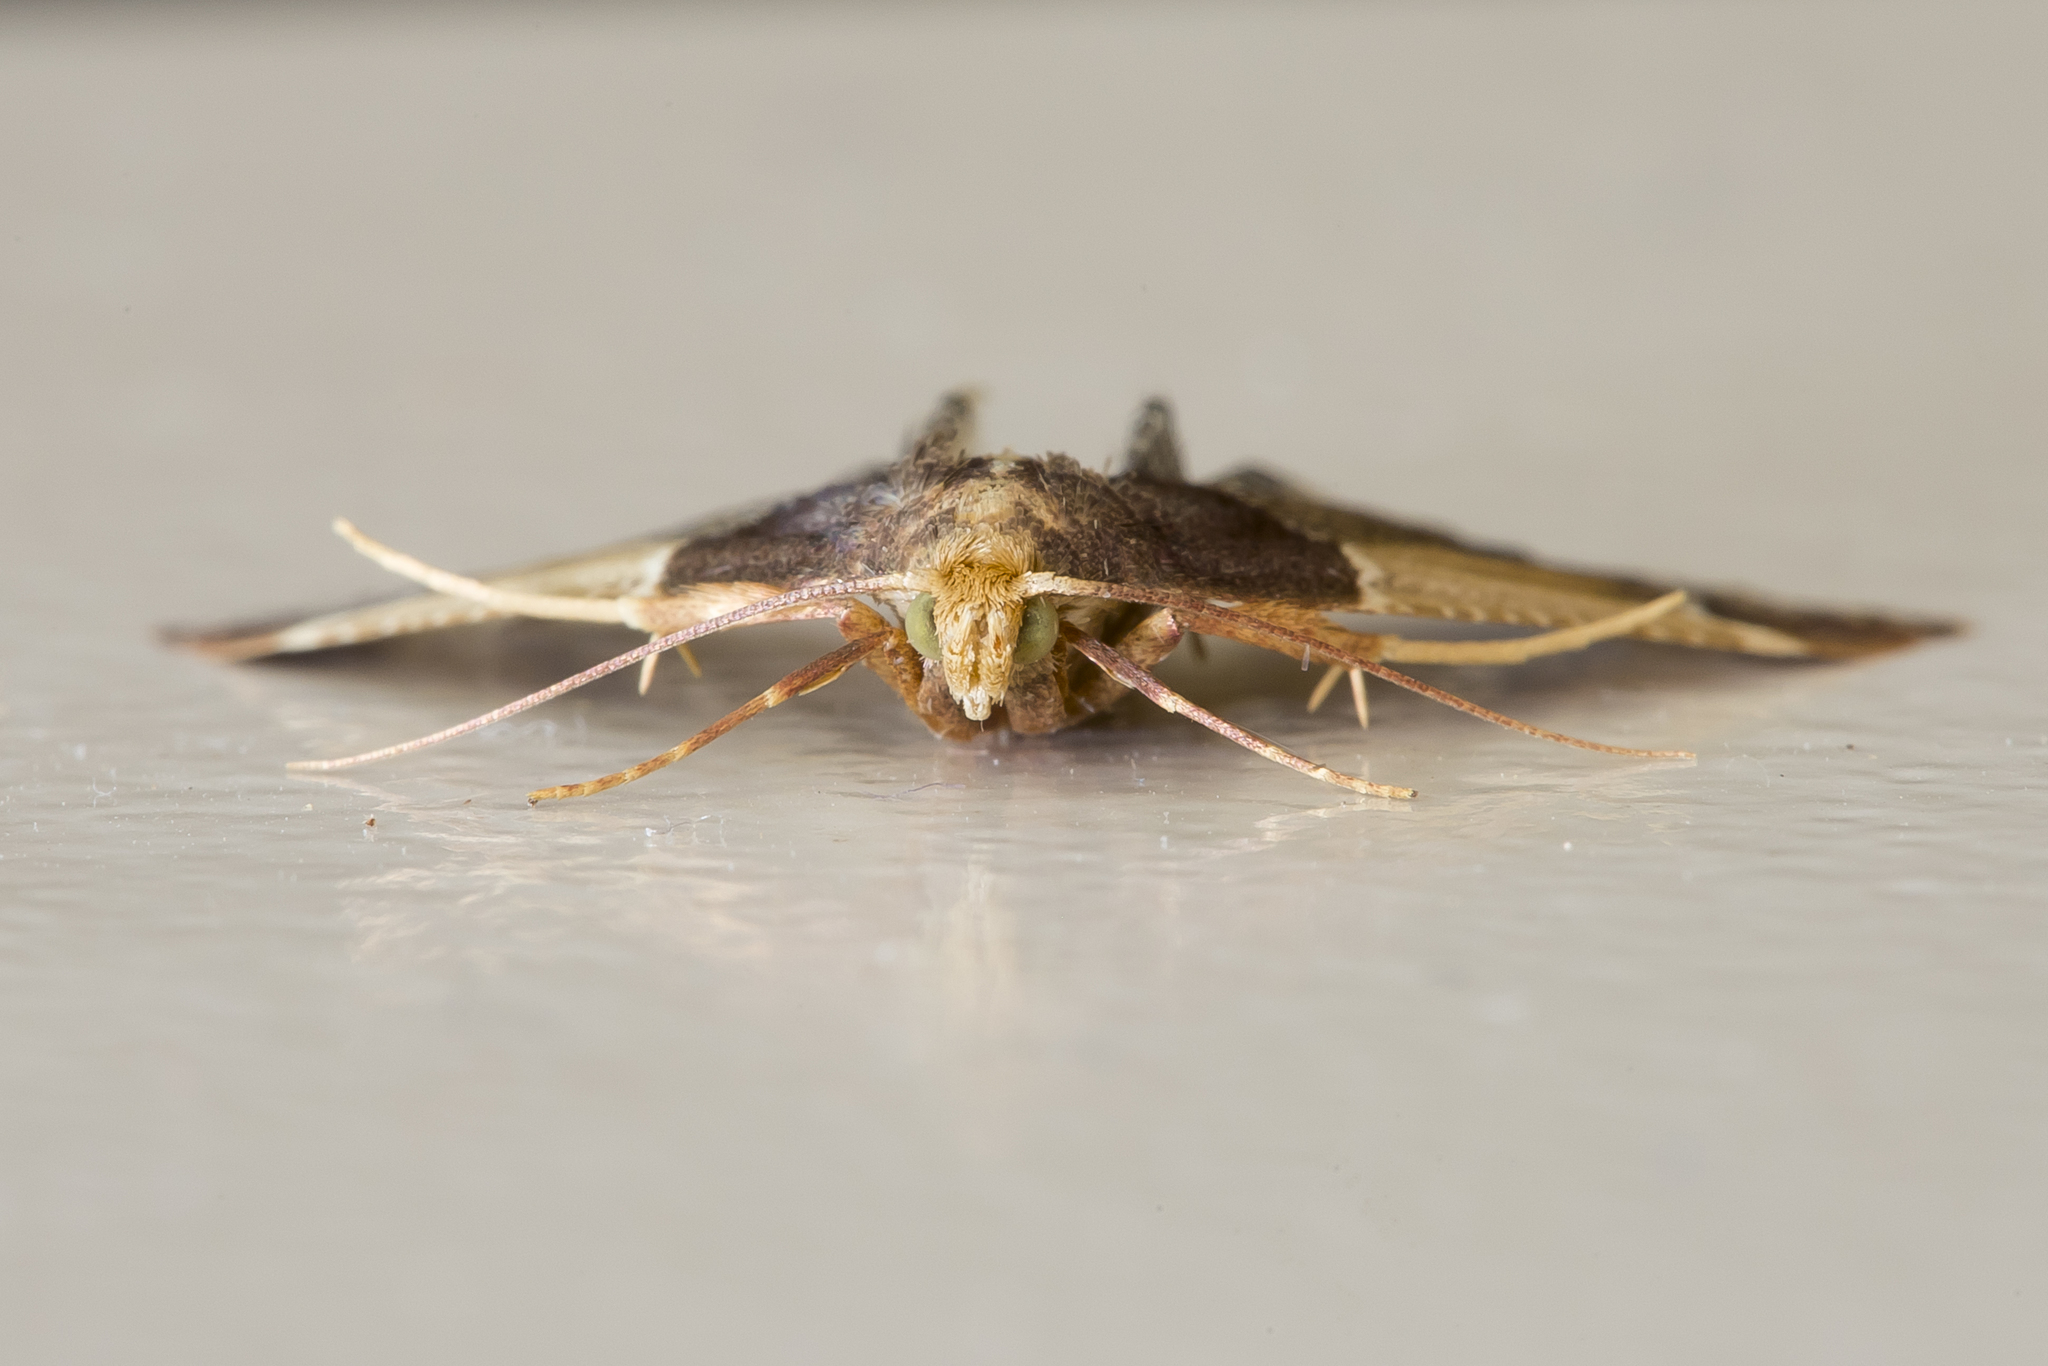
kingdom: Animalia
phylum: Arthropoda
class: Insecta
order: Lepidoptera
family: Pyralidae
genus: Pyralis
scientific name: Pyralis farinalis
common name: Meal moth
